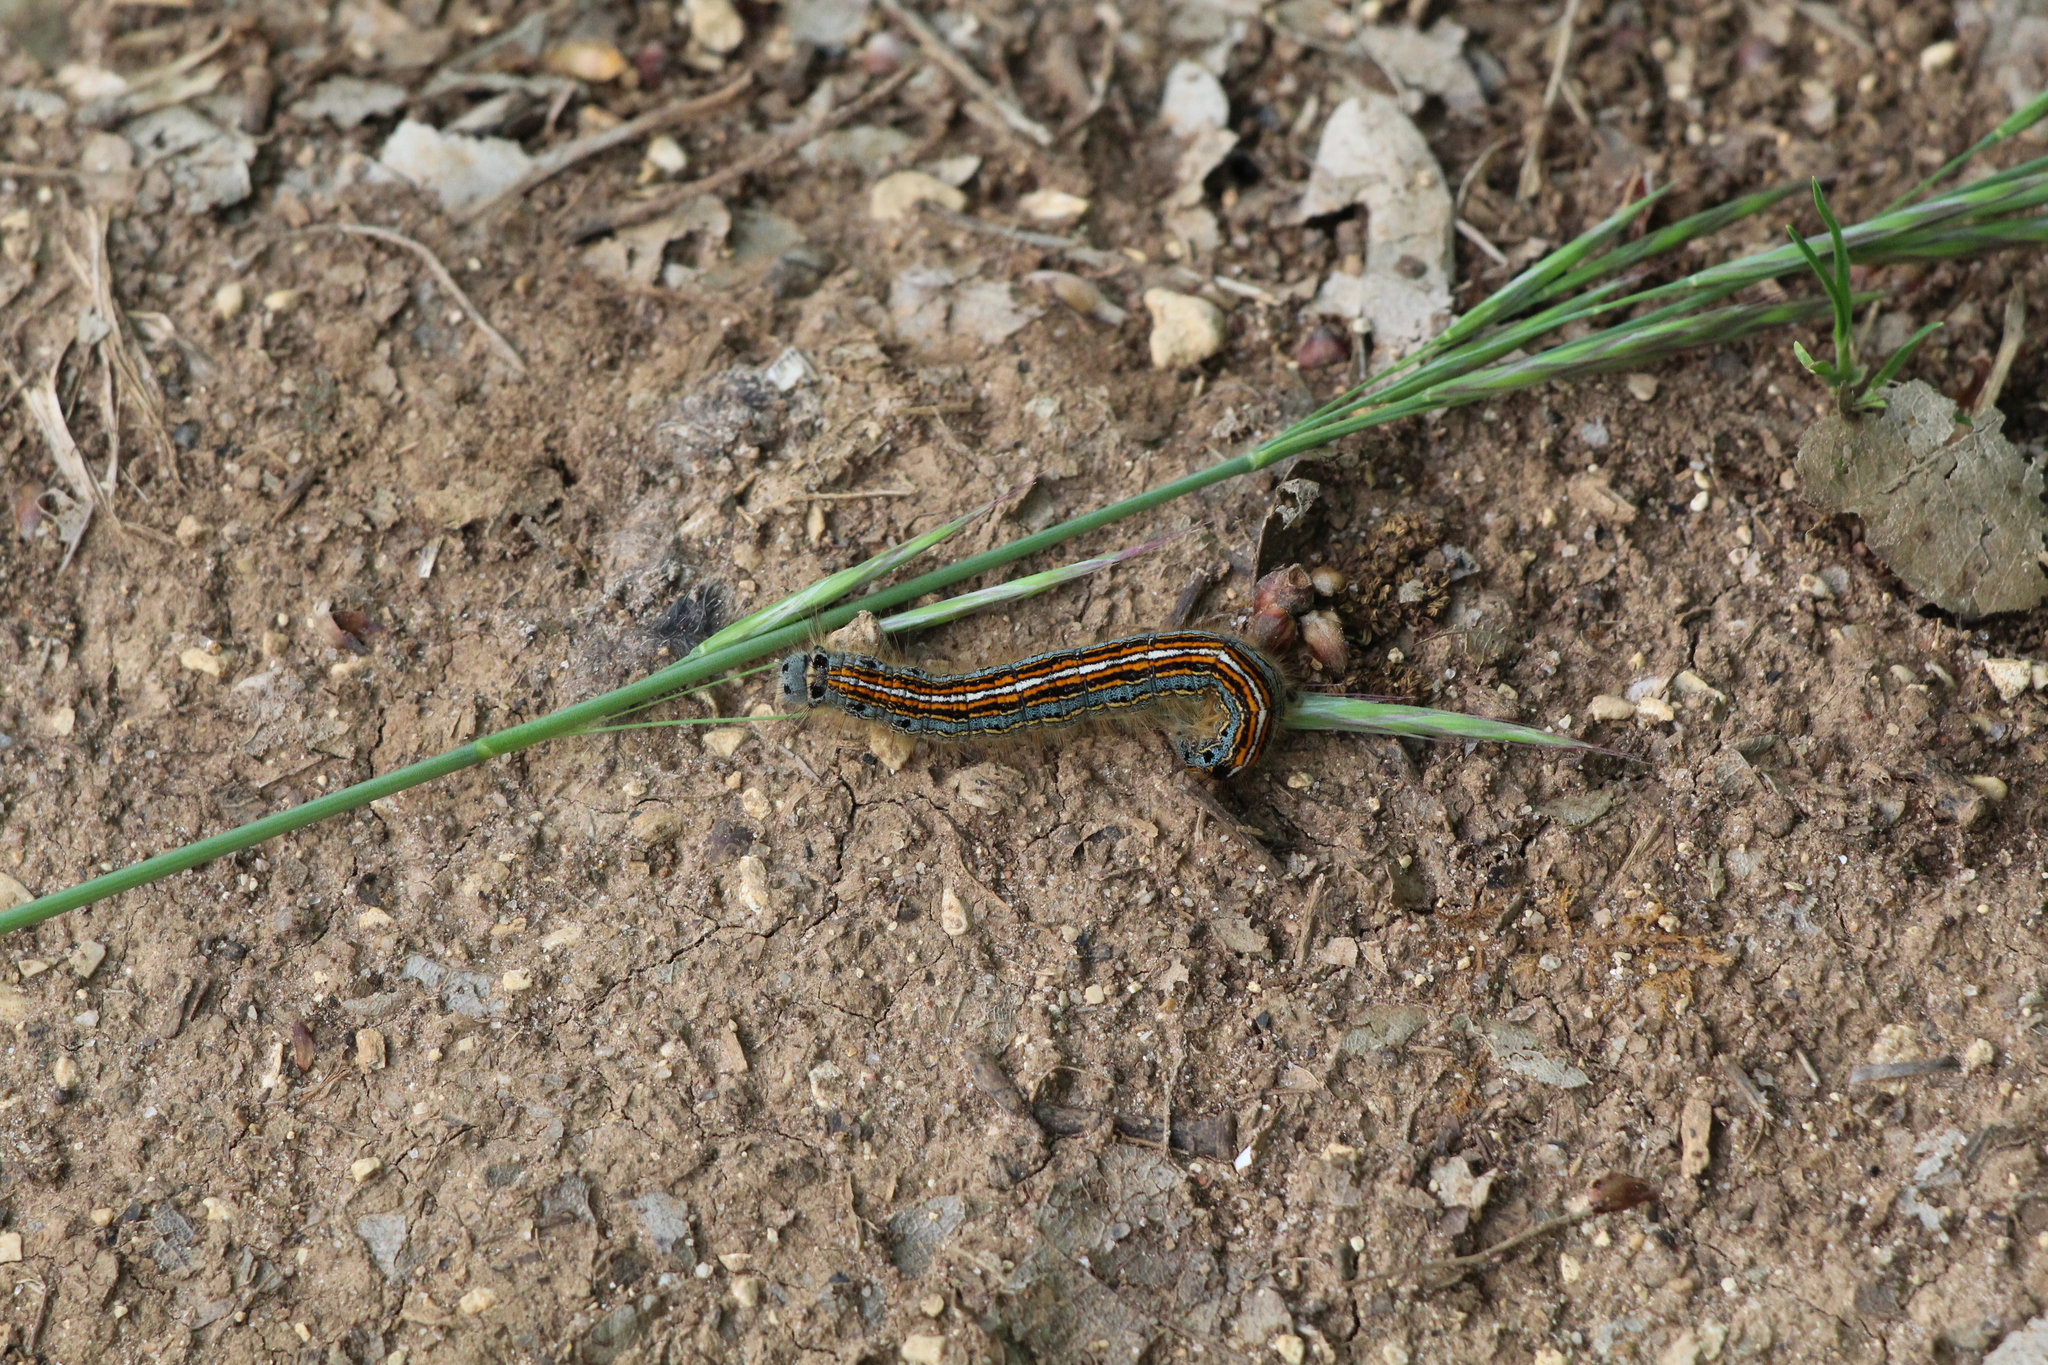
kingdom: Animalia
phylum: Arthropoda
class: Insecta
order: Lepidoptera
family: Lasiocampidae
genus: Malacosoma
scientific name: Malacosoma neustria
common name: The lackey
